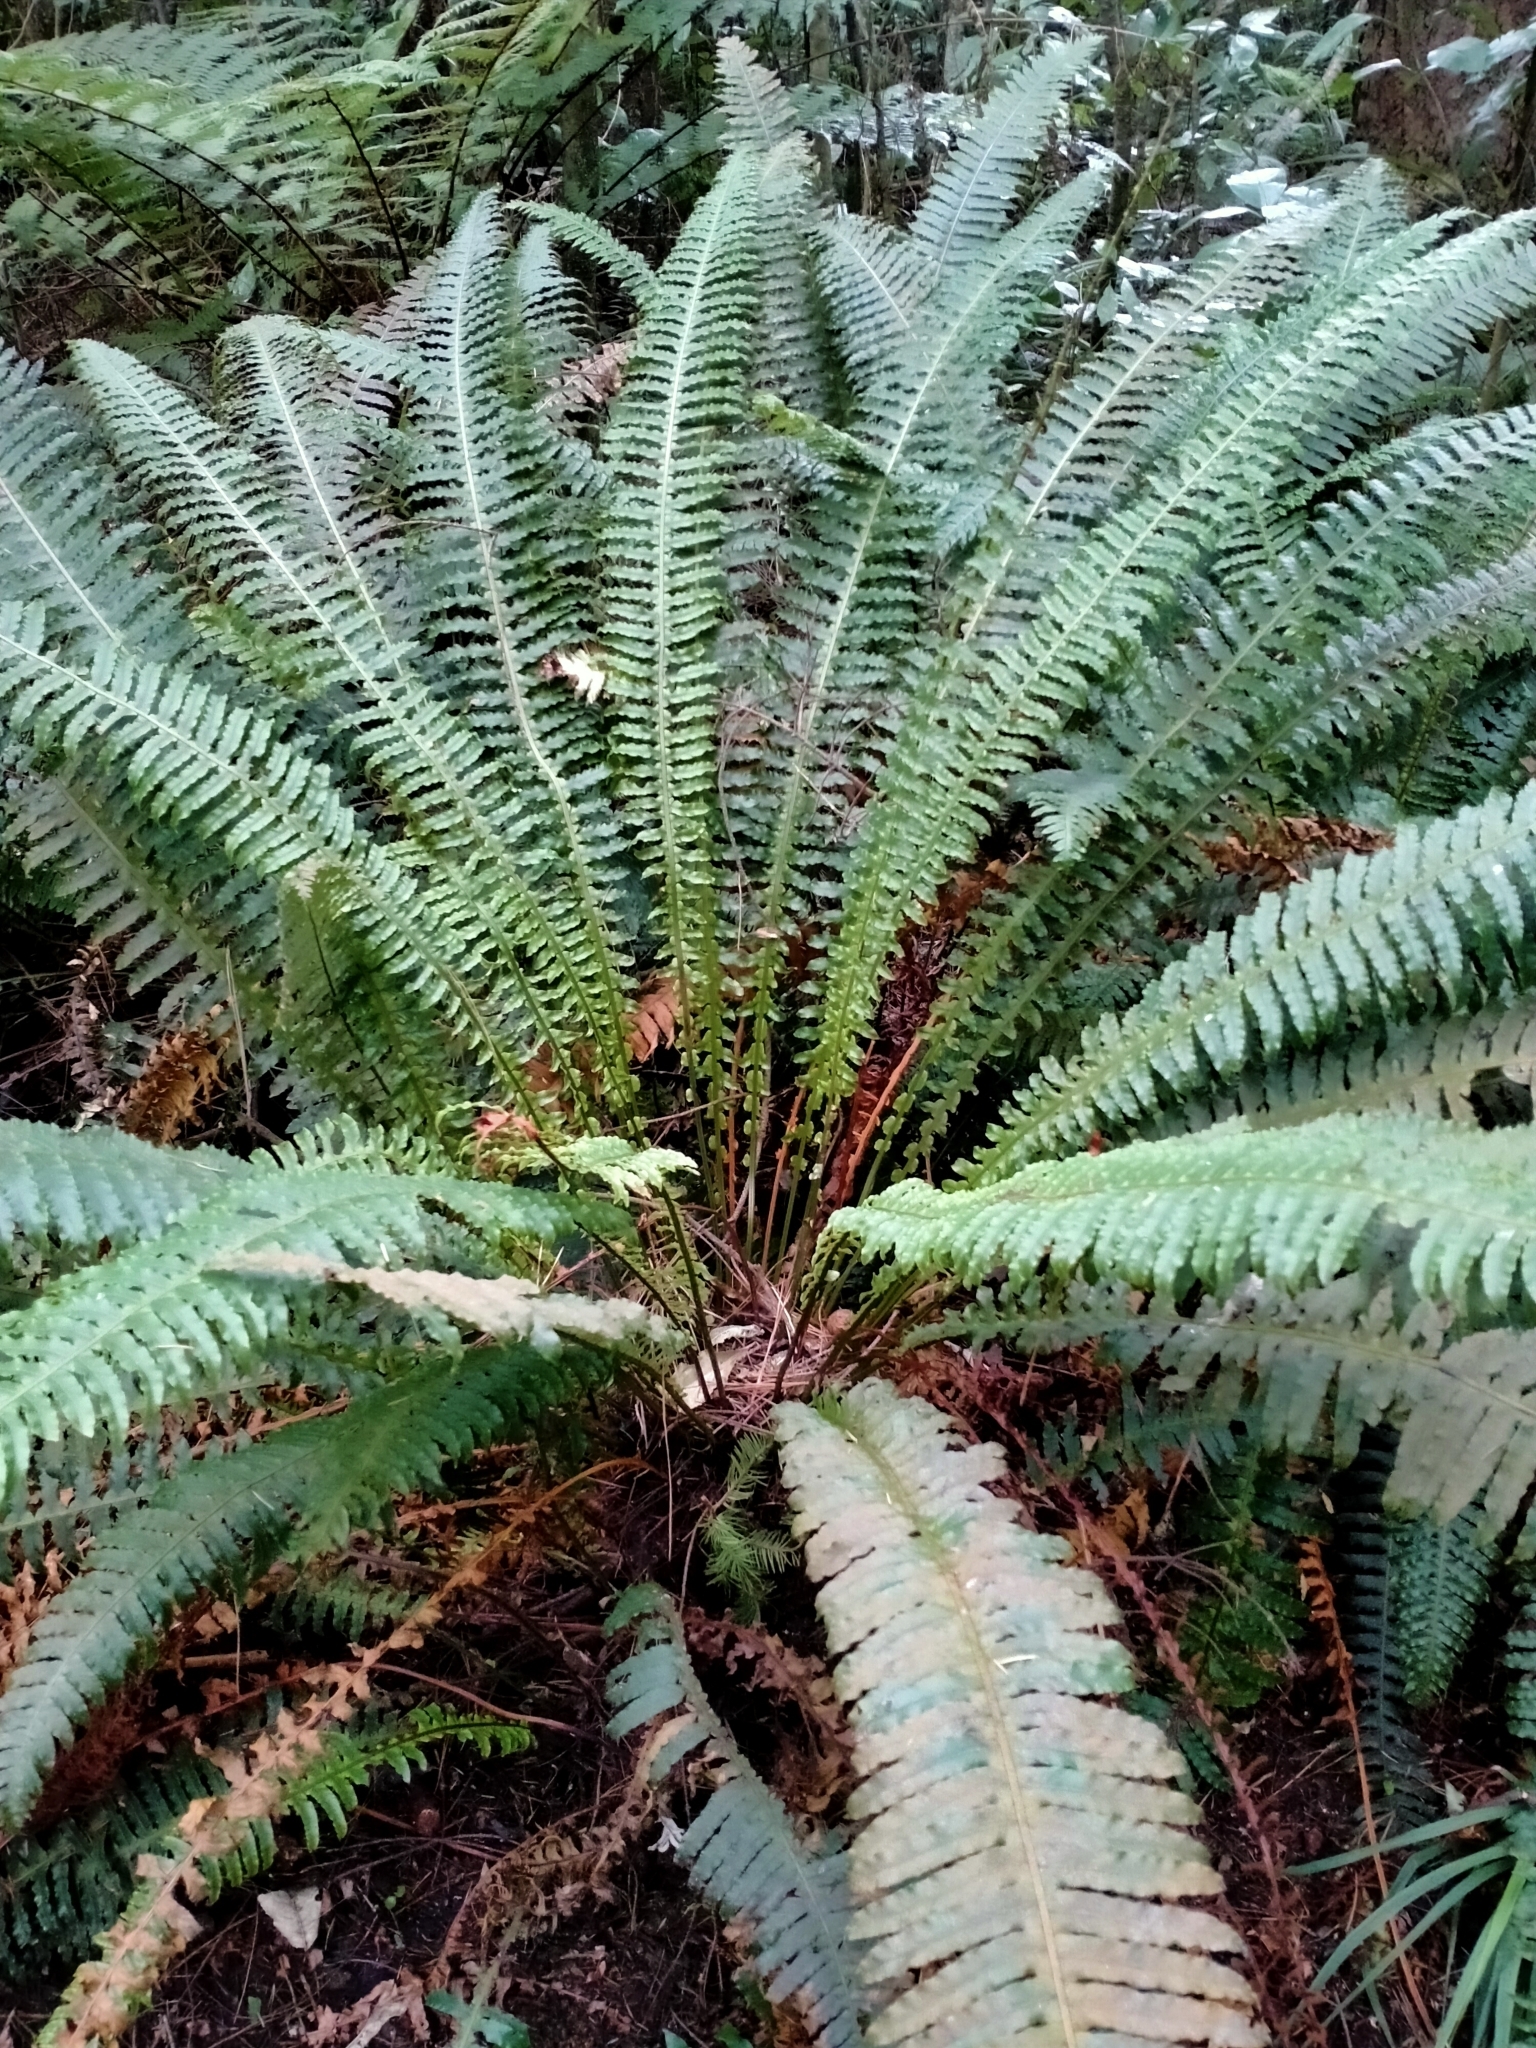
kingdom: Plantae
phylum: Tracheophyta
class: Polypodiopsida
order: Polypodiales
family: Blechnaceae
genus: Lomaria
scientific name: Lomaria discolor
